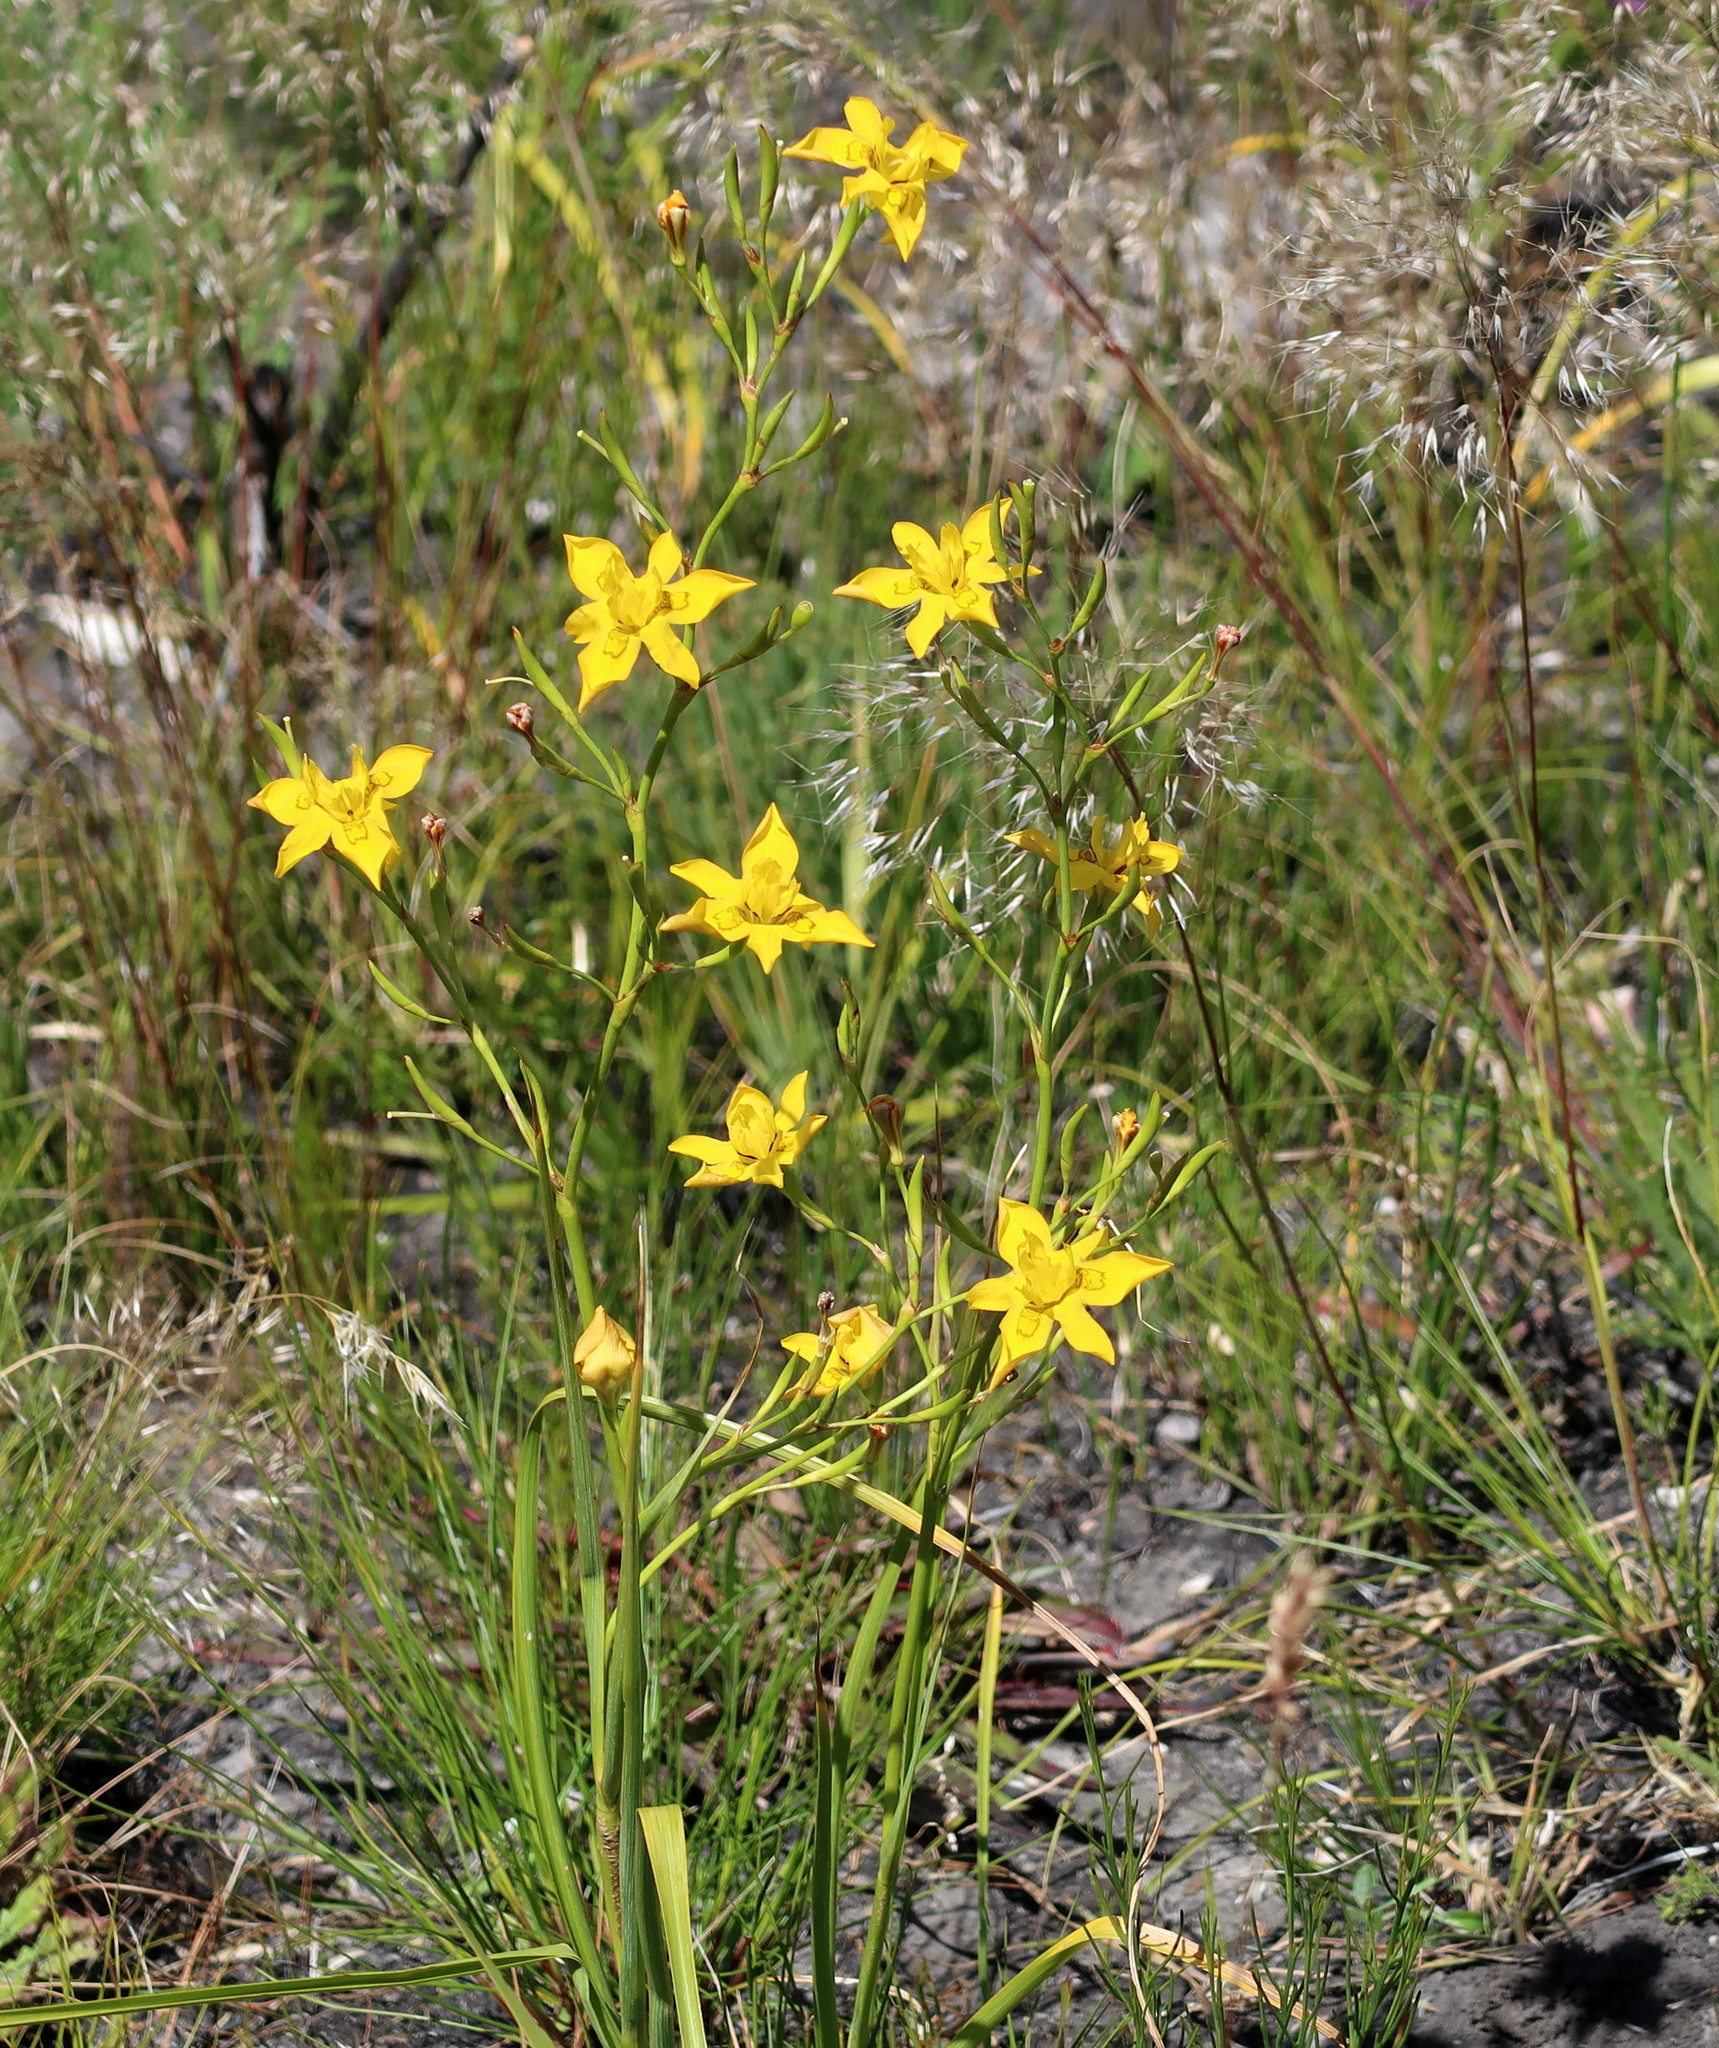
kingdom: Plantae
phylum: Tracheophyta
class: Liliopsida
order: Asparagales
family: Iridaceae
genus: Moraea
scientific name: Moraea ramosissima
